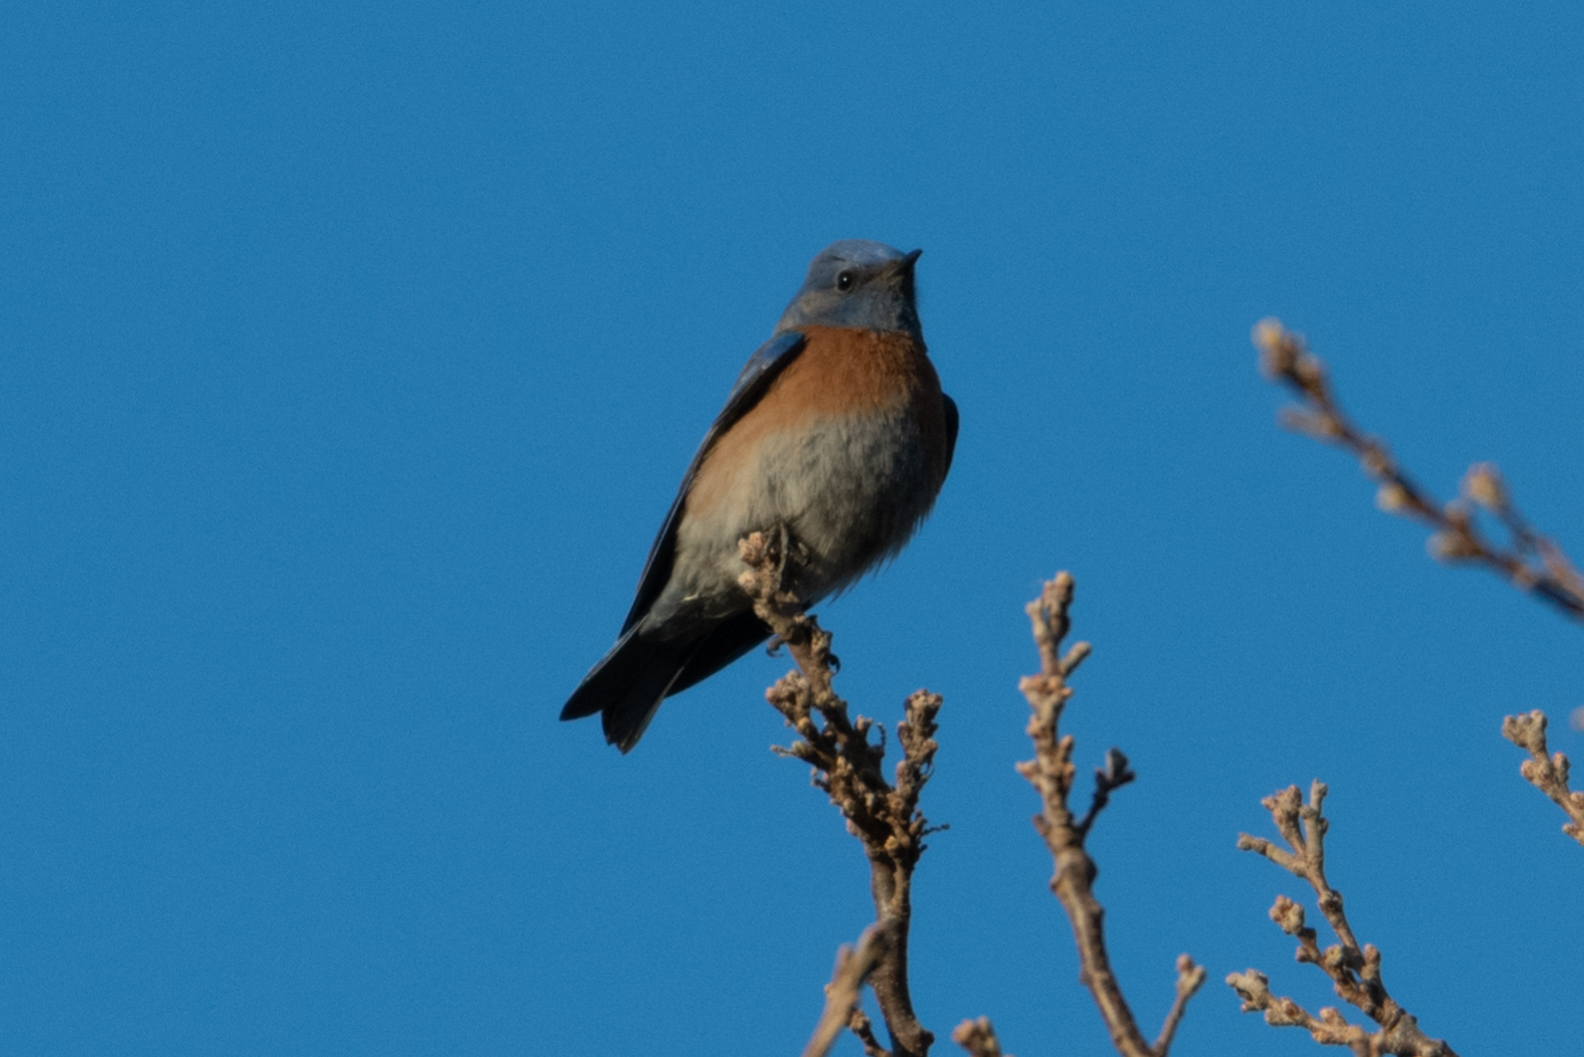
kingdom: Animalia
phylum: Chordata
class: Aves
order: Passeriformes
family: Turdidae
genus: Sialia
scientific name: Sialia mexicana
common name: Western bluebird
